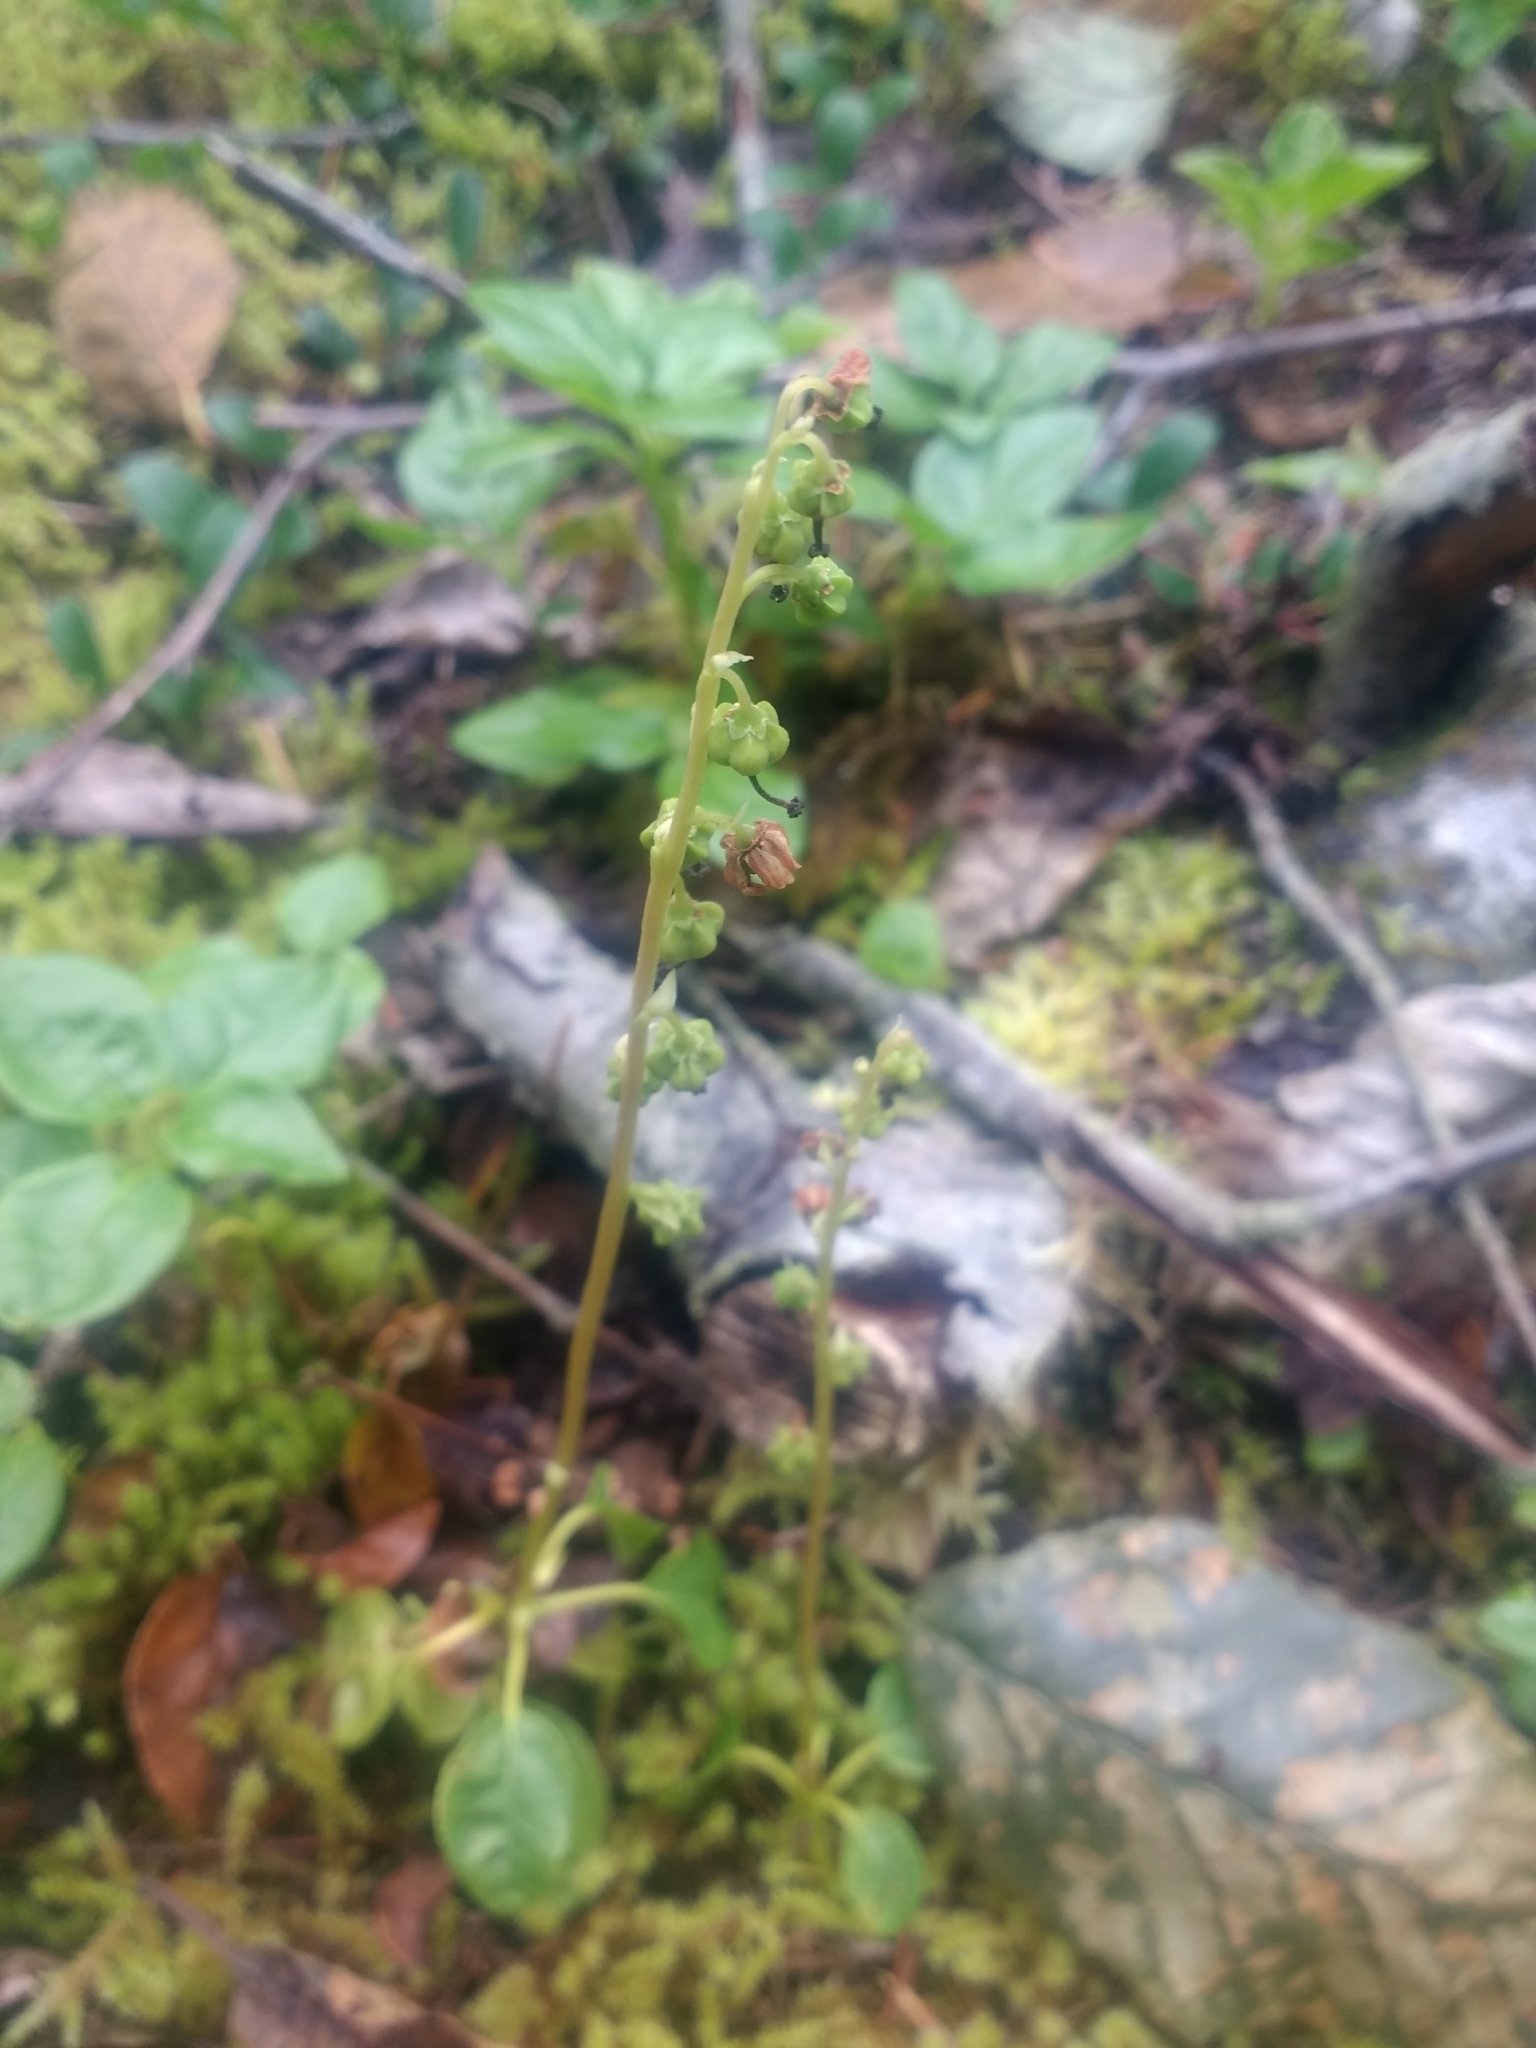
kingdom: Plantae
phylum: Tracheophyta
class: Magnoliopsida
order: Ericales
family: Ericaceae
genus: Orthilia
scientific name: Orthilia secunda
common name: One-sided orthilia
